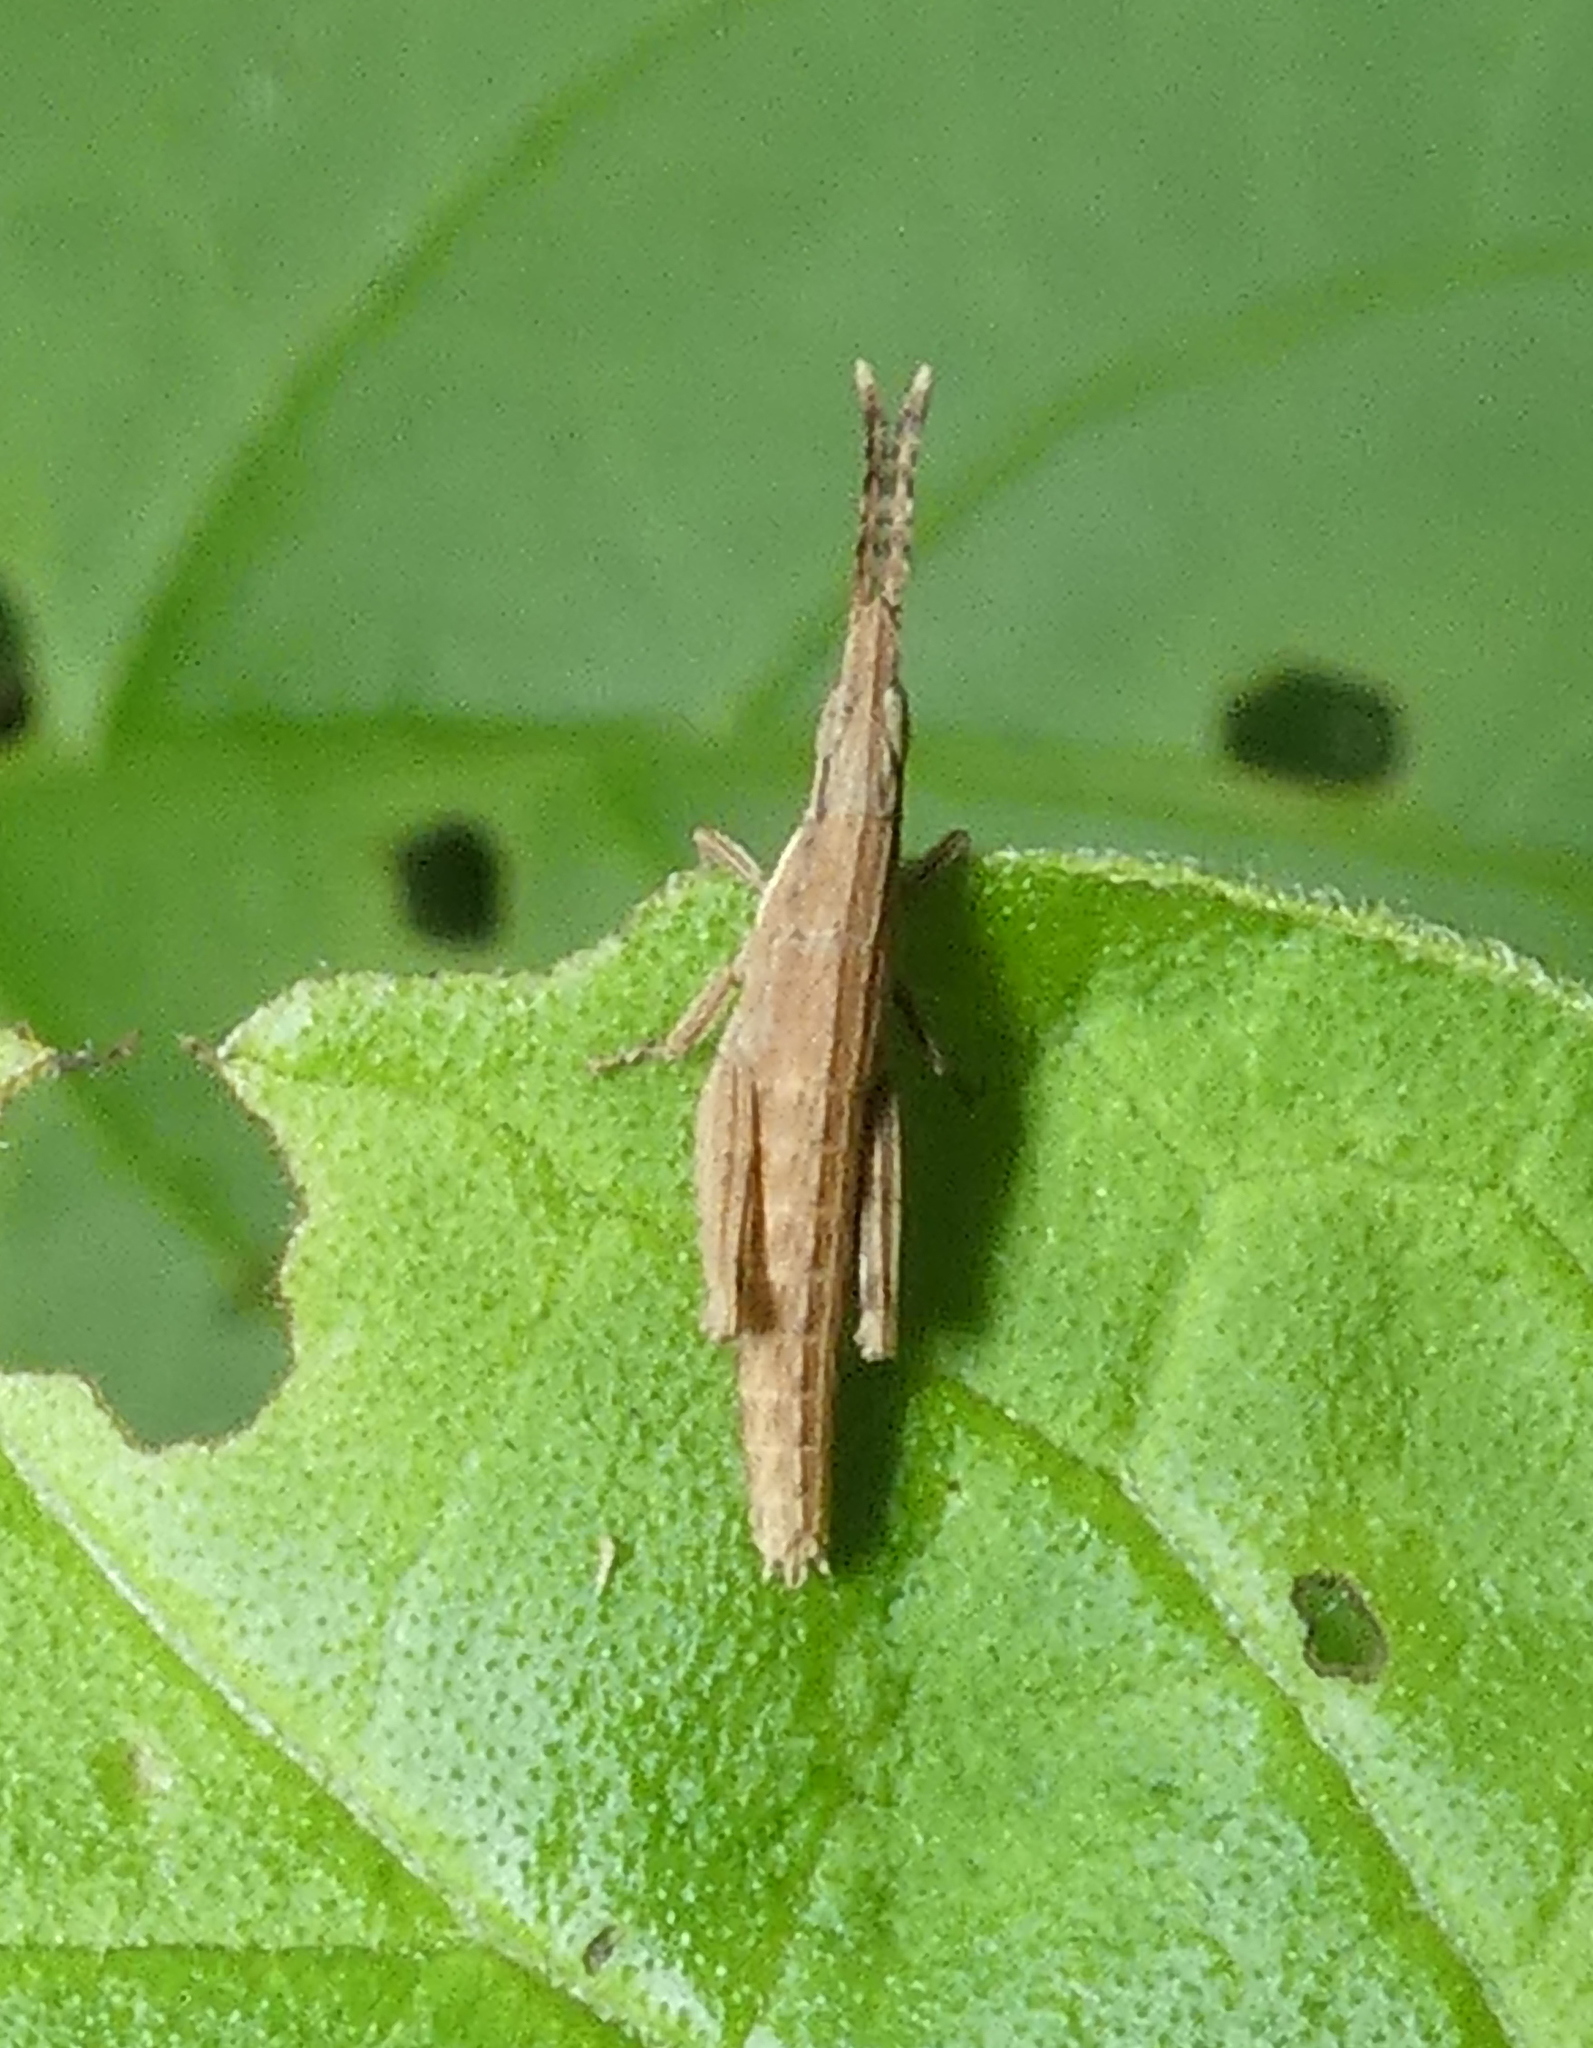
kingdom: Animalia
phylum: Arthropoda
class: Insecta
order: Orthoptera
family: Pyrgomorphidae
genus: Algete
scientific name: Algete brunneri
